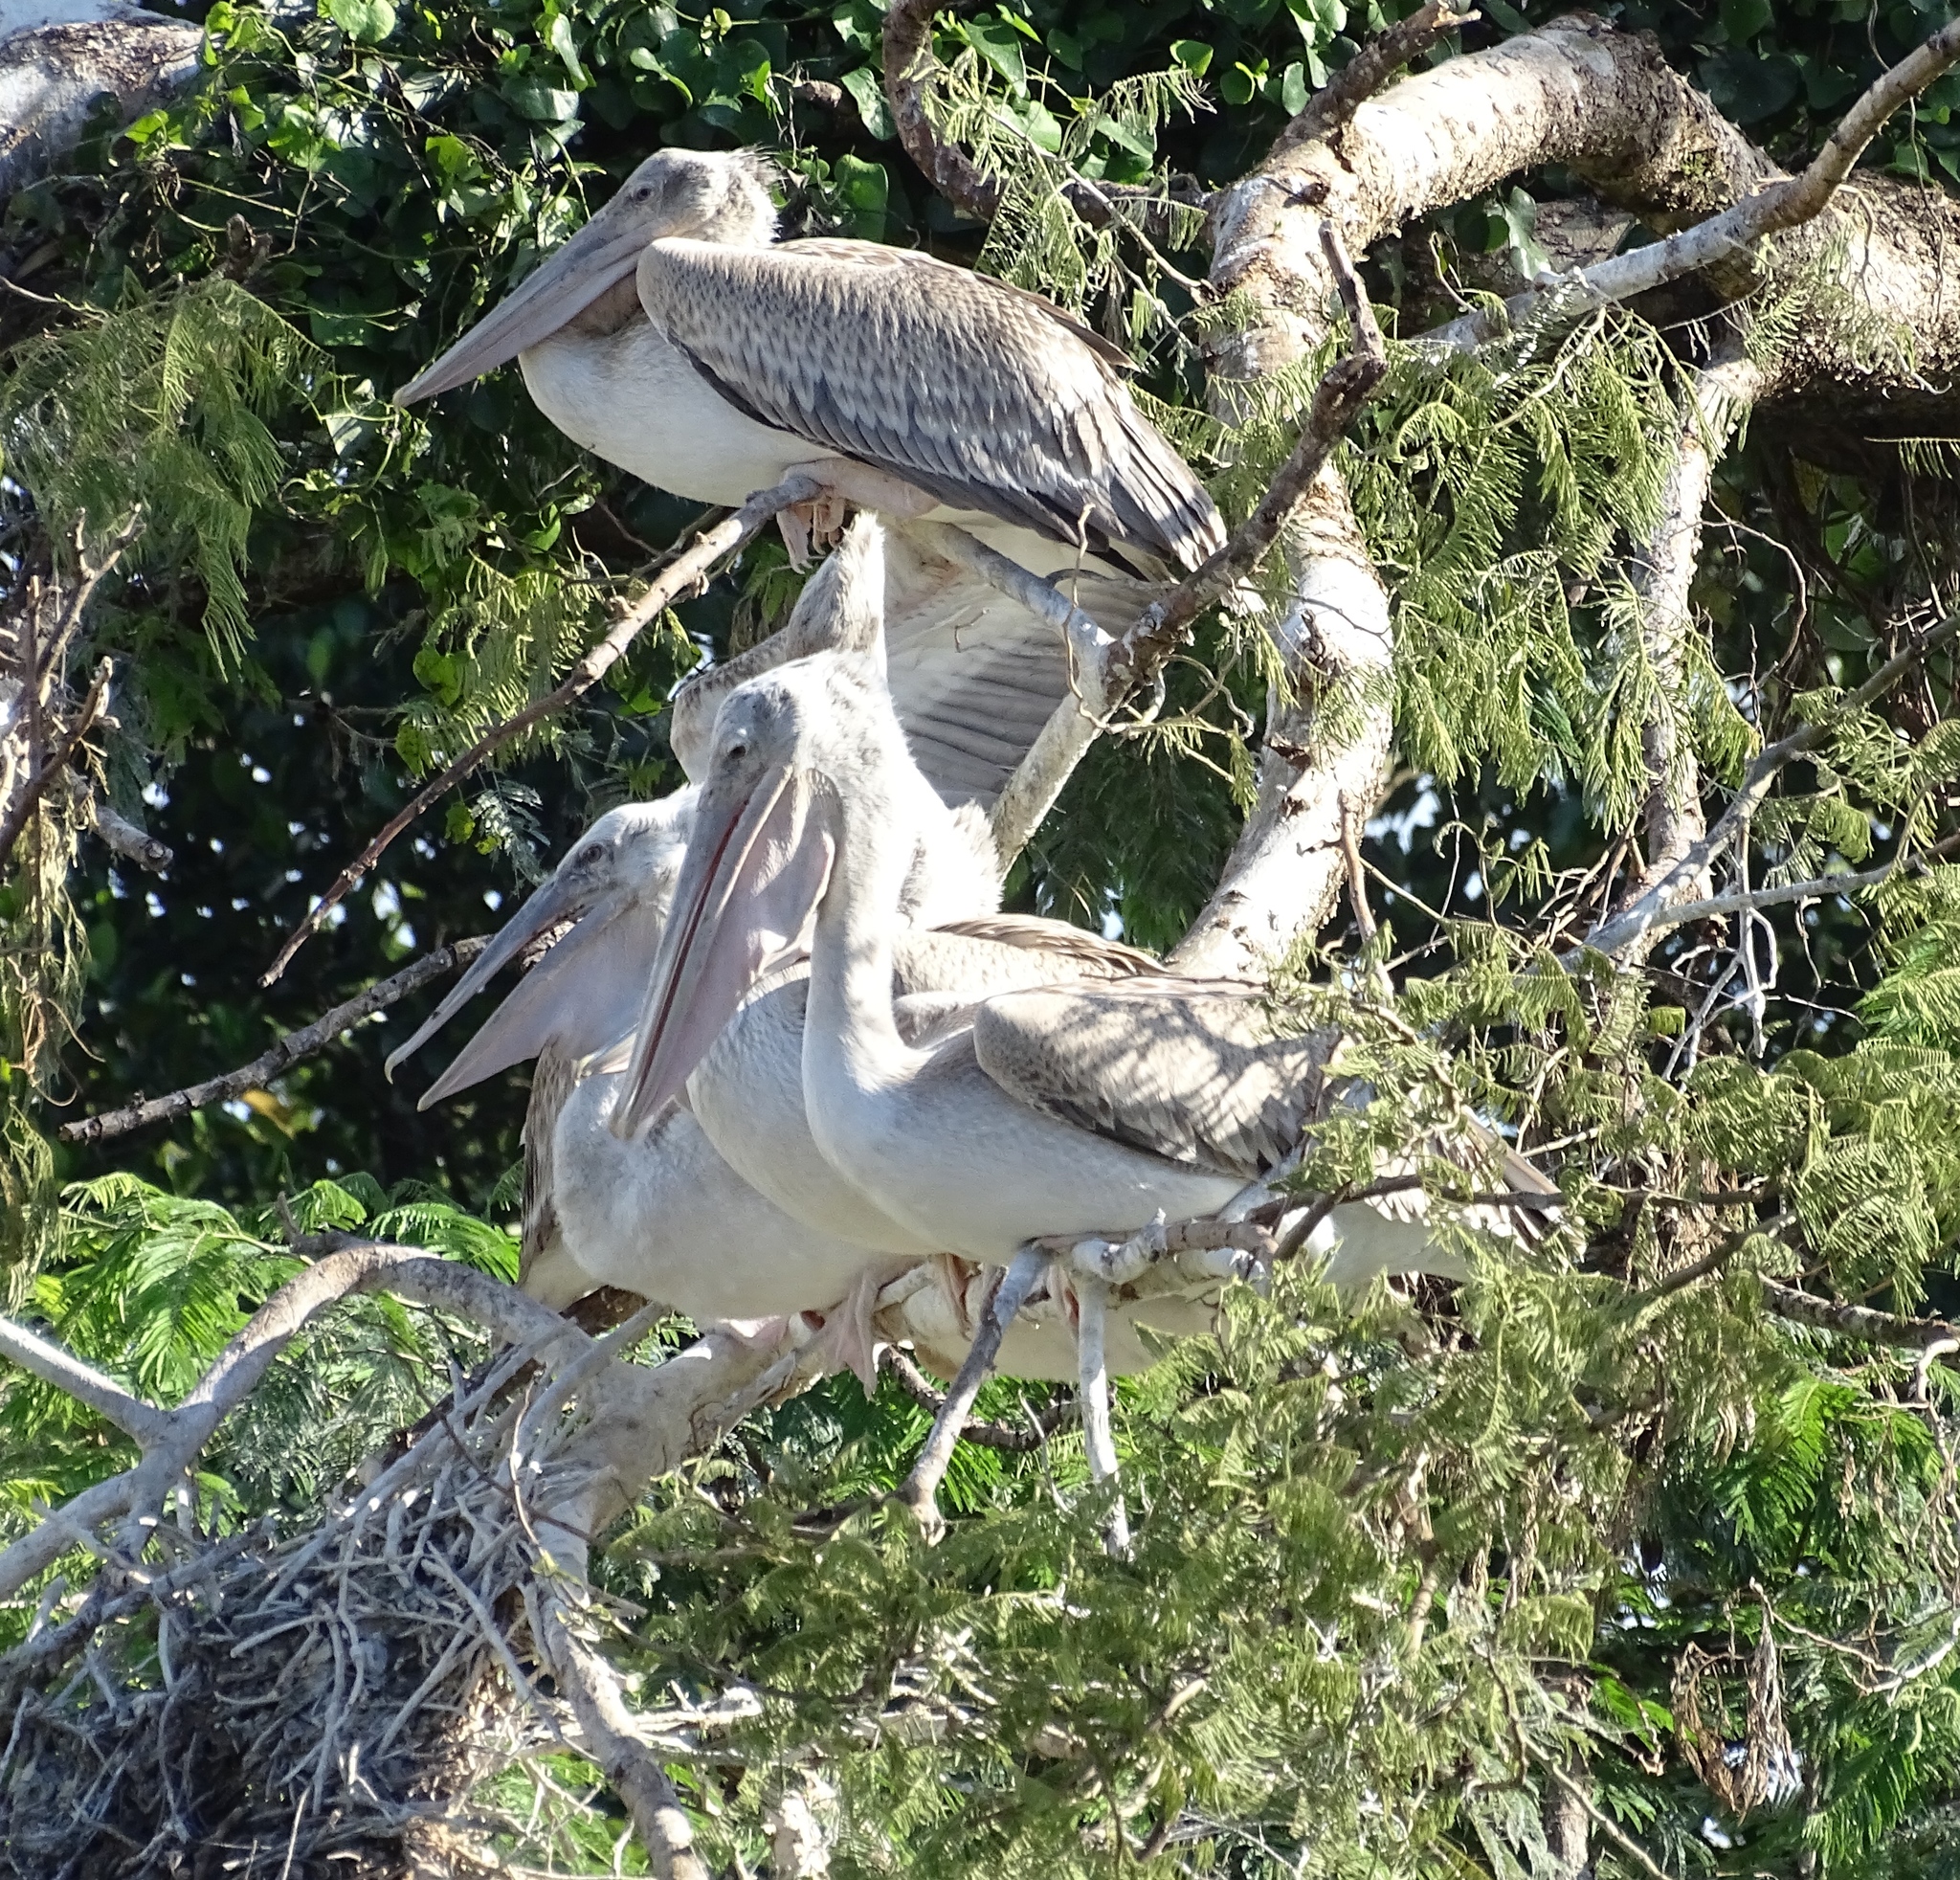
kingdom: Animalia
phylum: Chordata
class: Aves
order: Pelecaniformes
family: Pelecanidae
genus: Pelecanus
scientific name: Pelecanus rufescens
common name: Pink-backed pelican
